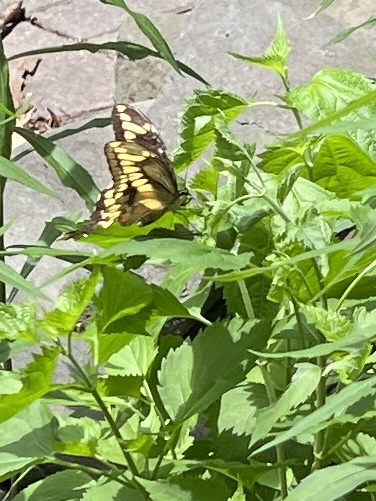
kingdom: Animalia
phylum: Arthropoda
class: Insecta
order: Lepidoptera
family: Papilionidae
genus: Papilio
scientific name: Papilio cresphontes
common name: Giant swallowtail
